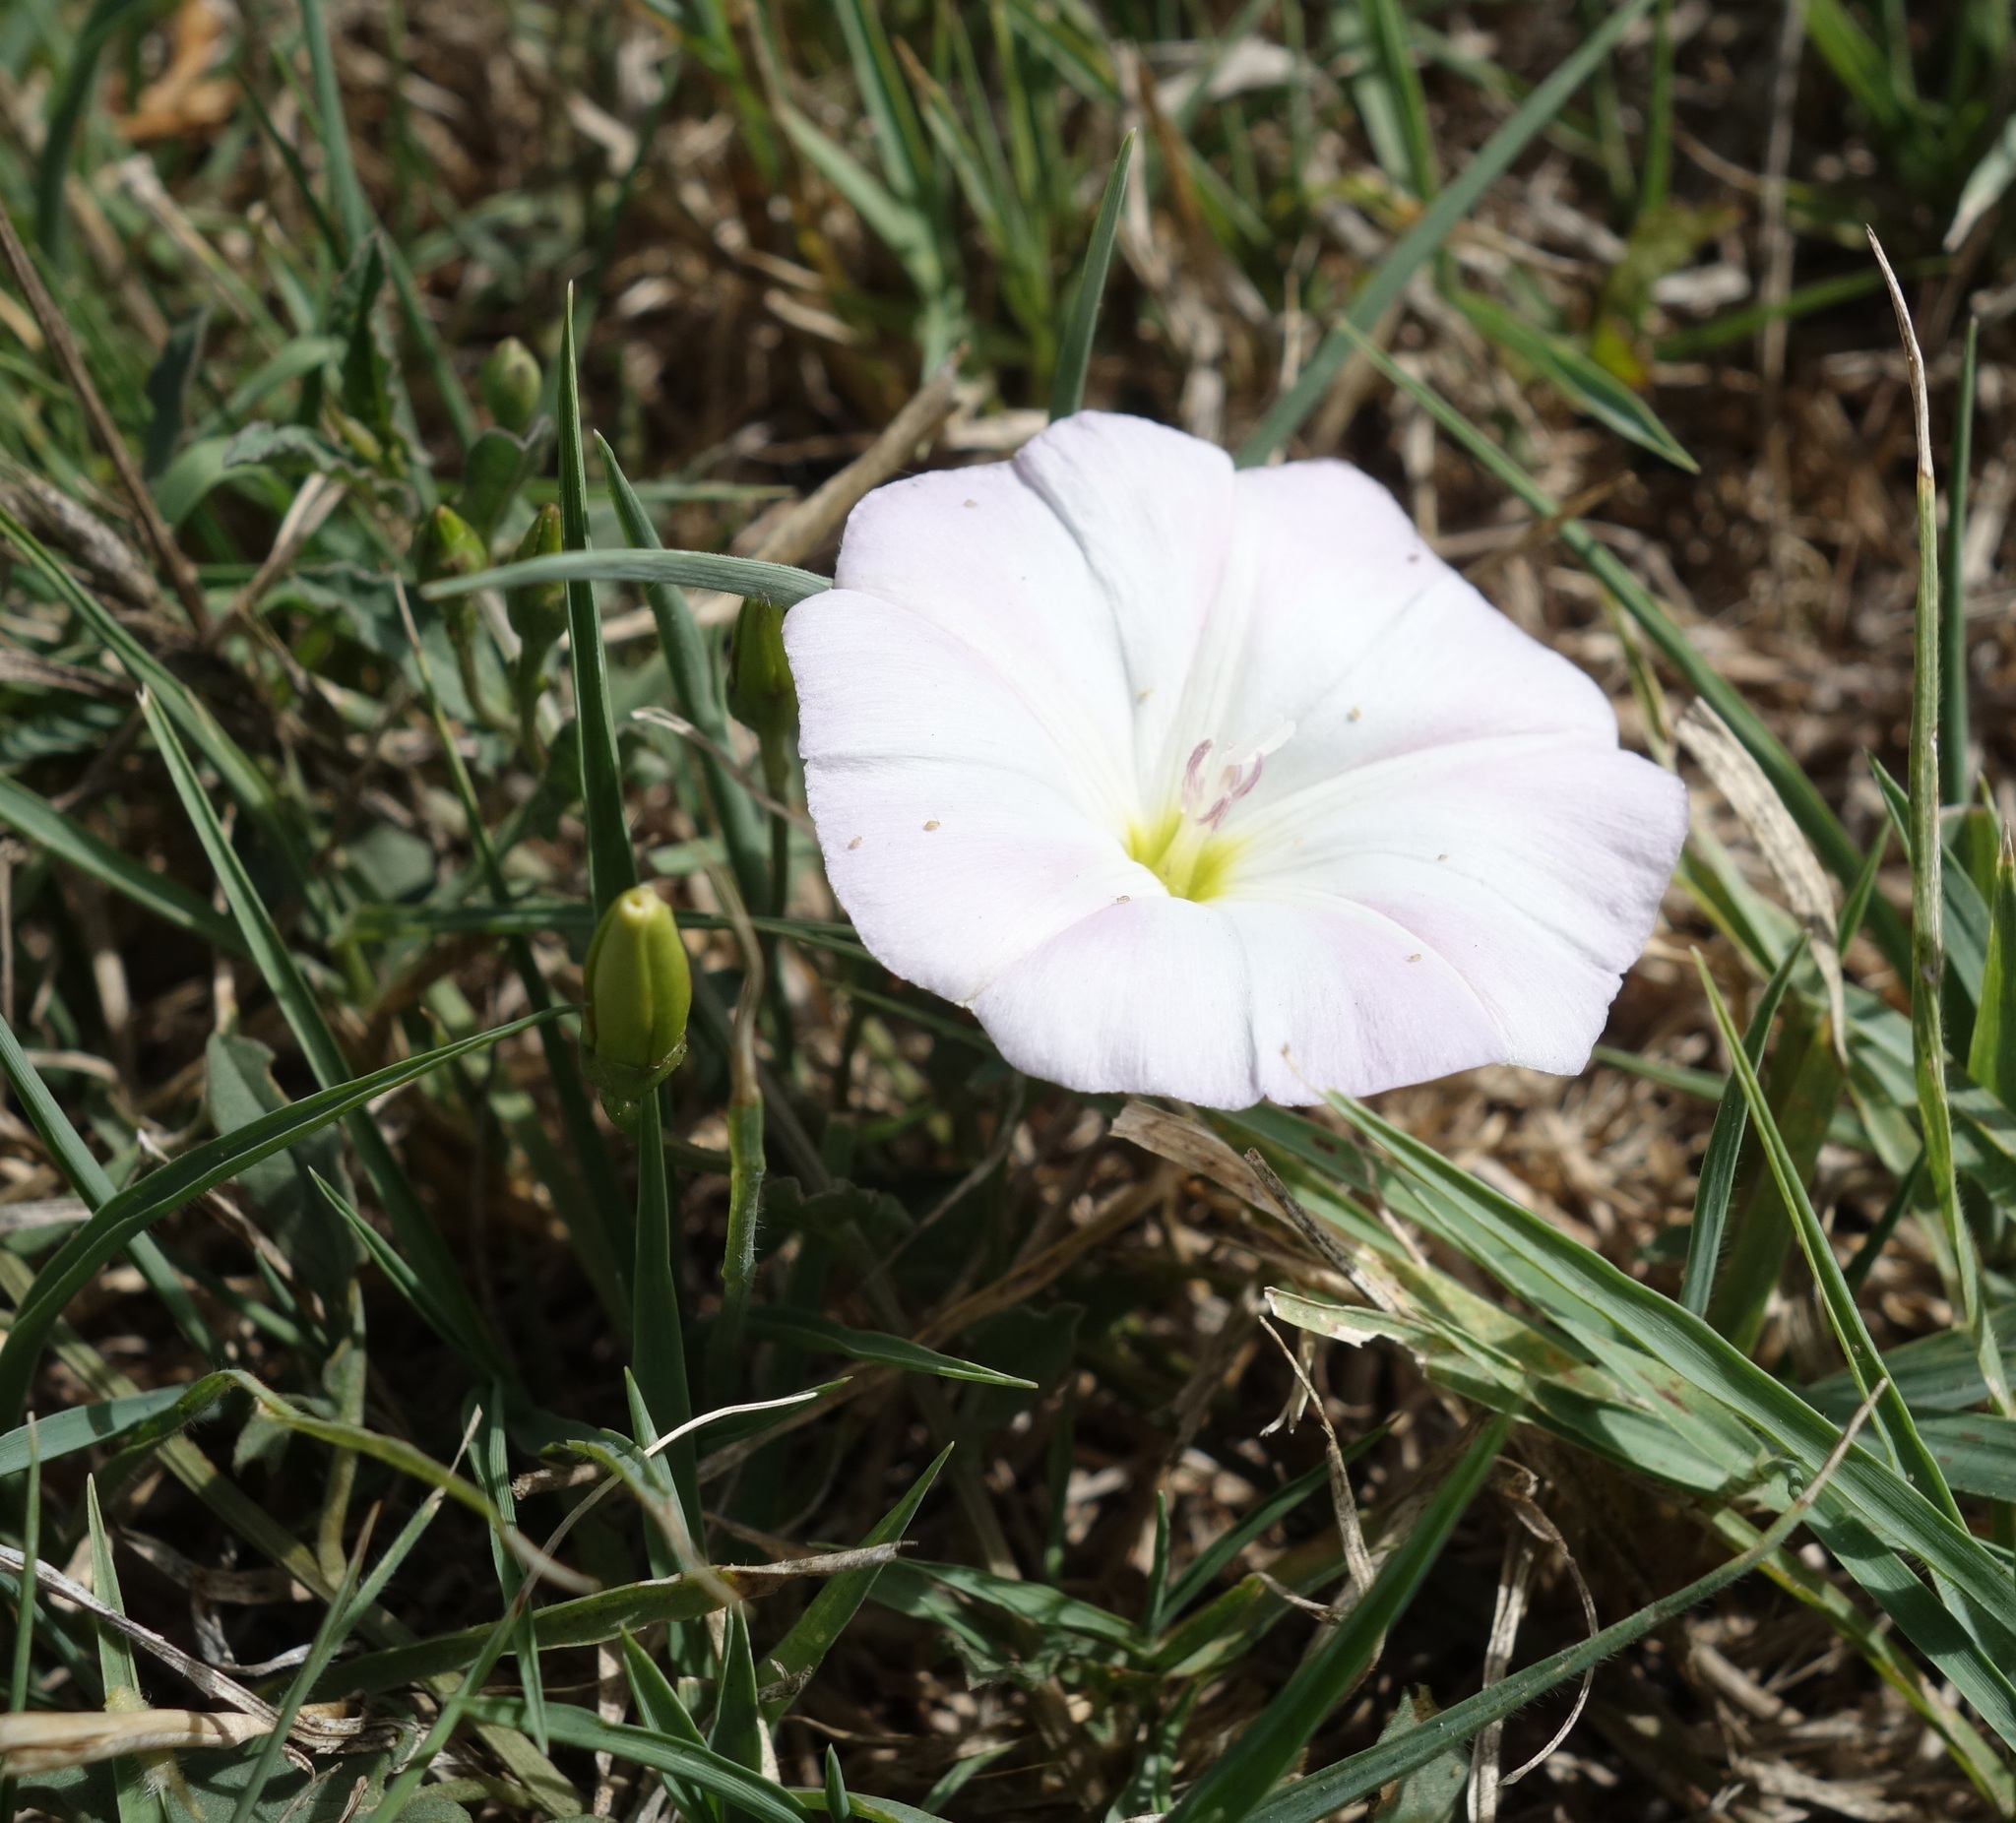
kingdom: Plantae
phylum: Tracheophyta
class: Magnoliopsida
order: Solanales
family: Convolvulaceae
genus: Convolvulus
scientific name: Convolvulus arvensis
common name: Field bindweed
